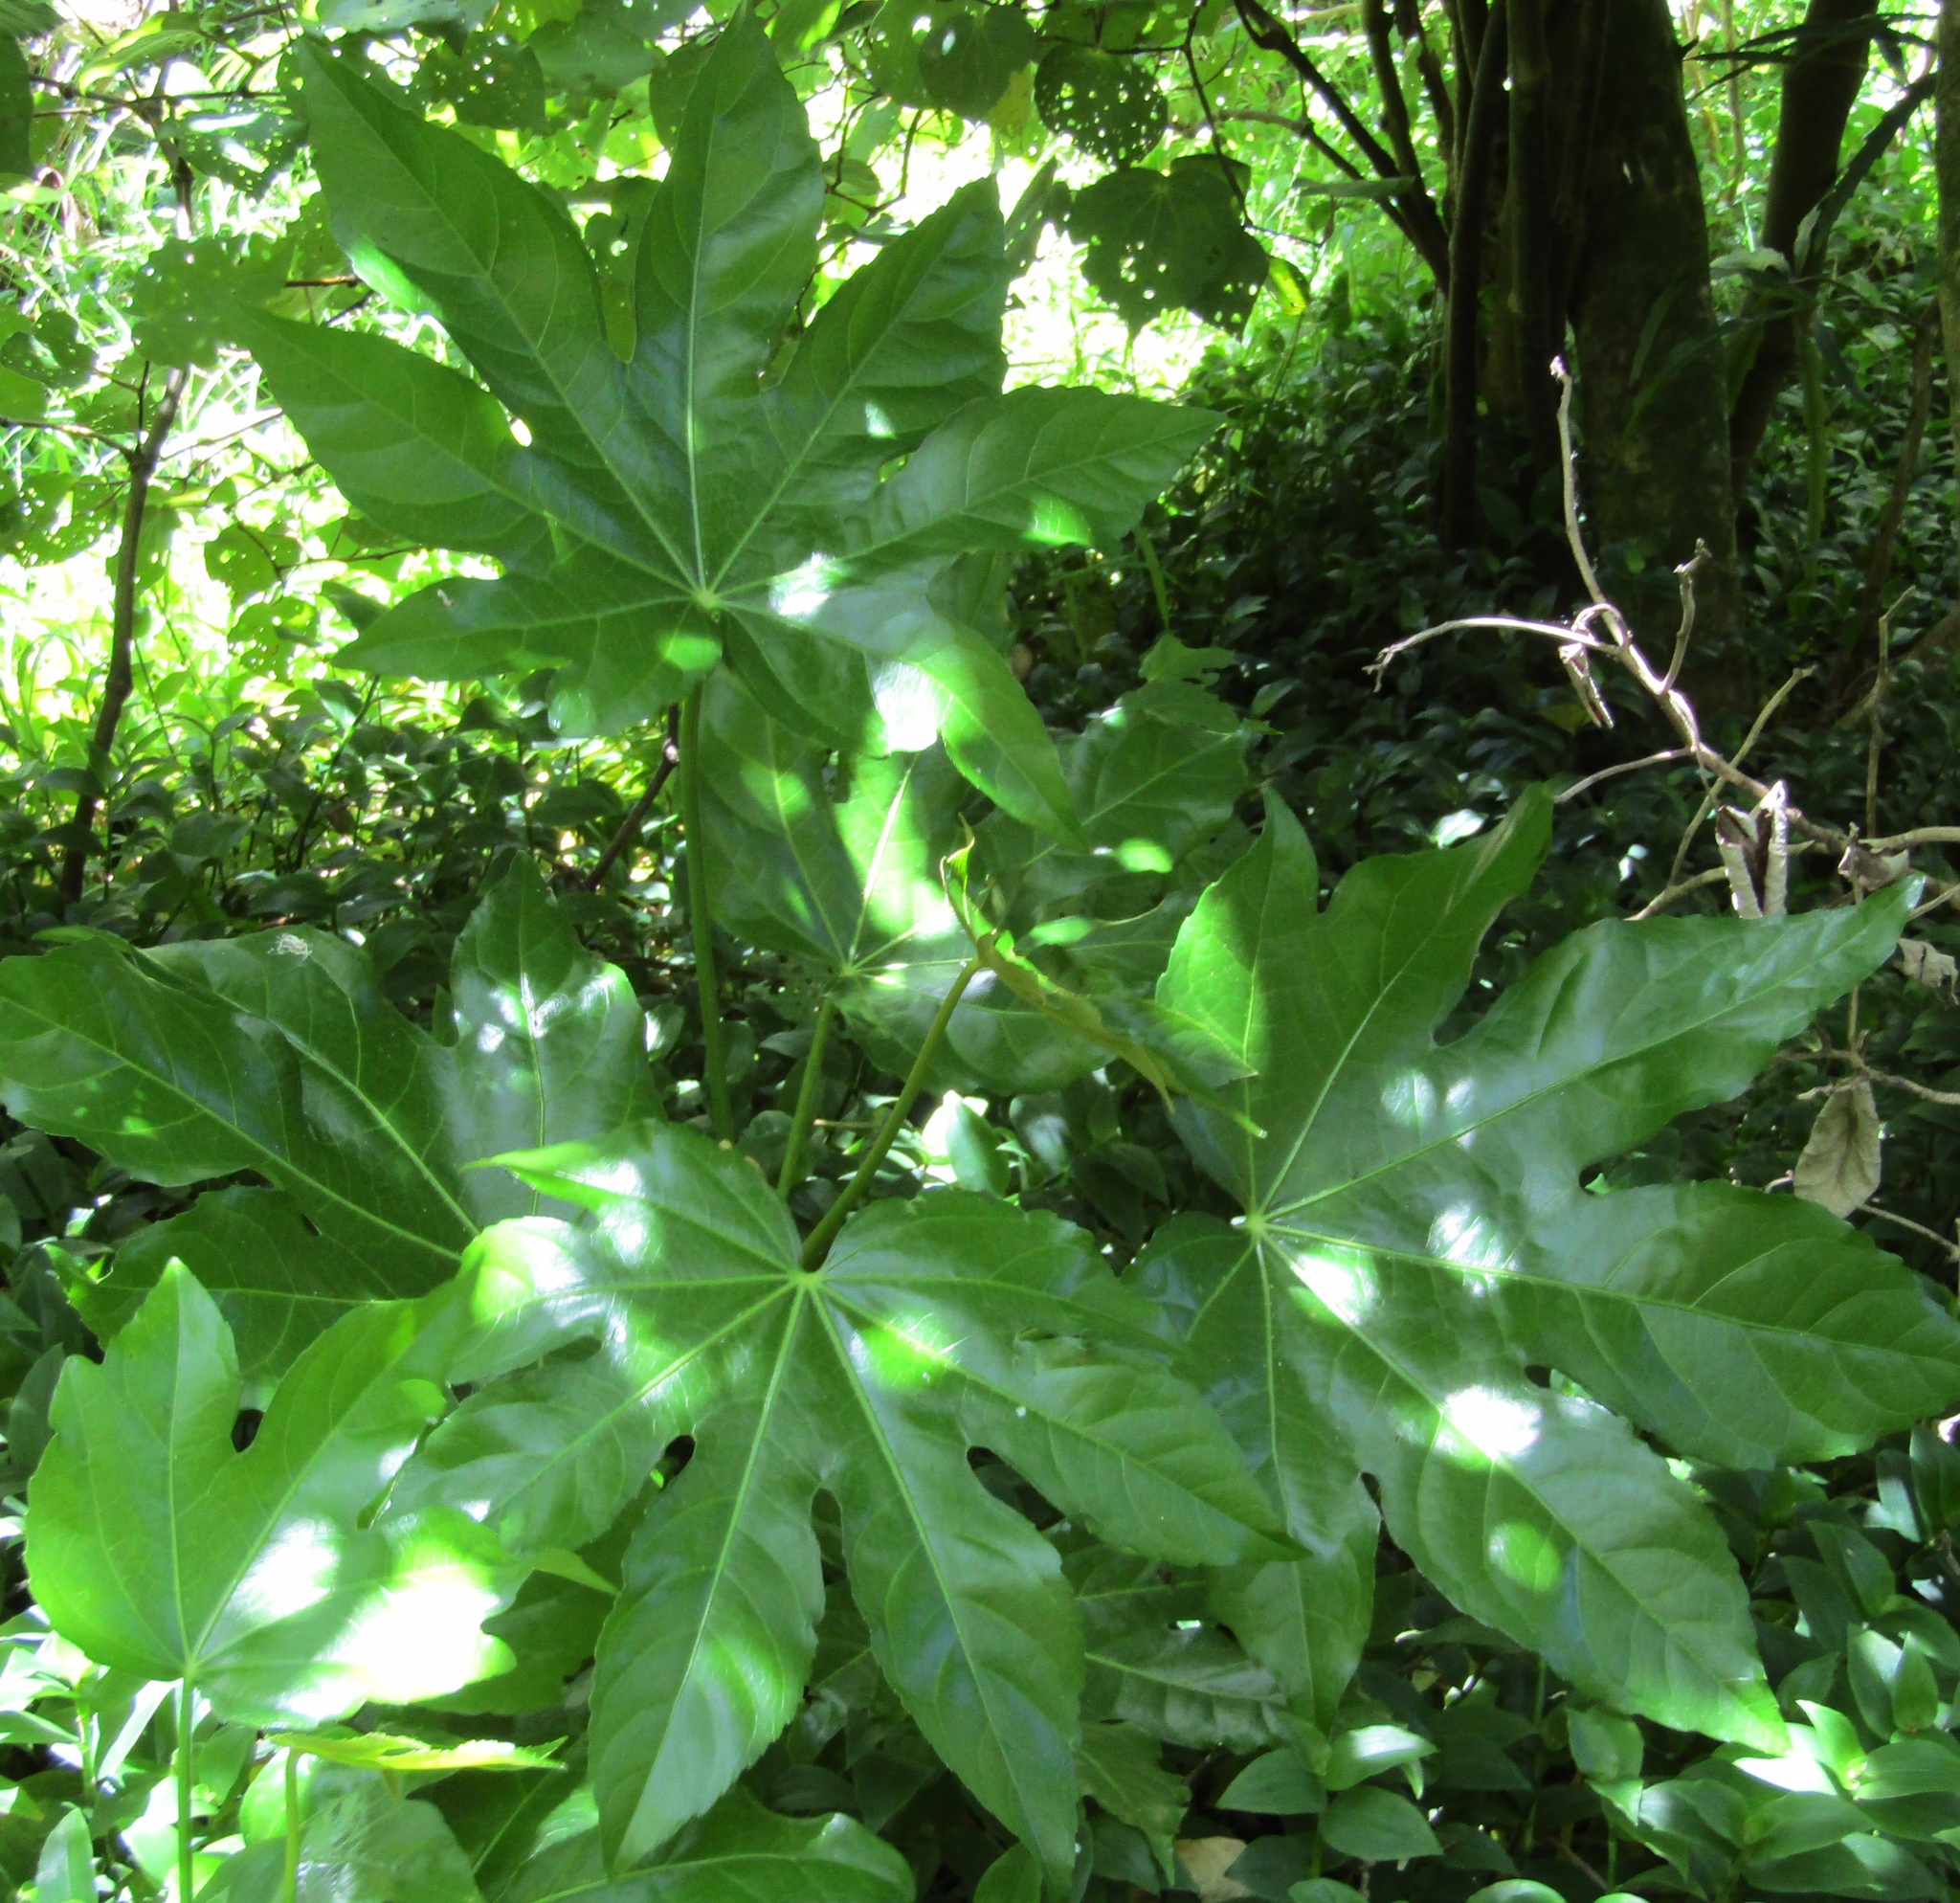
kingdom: Plantae
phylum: Tracheophyta
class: Magnoliopsida
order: Apiales
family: Araliaceae
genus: Fatsia
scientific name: Fatsia japonica
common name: Fatsia
